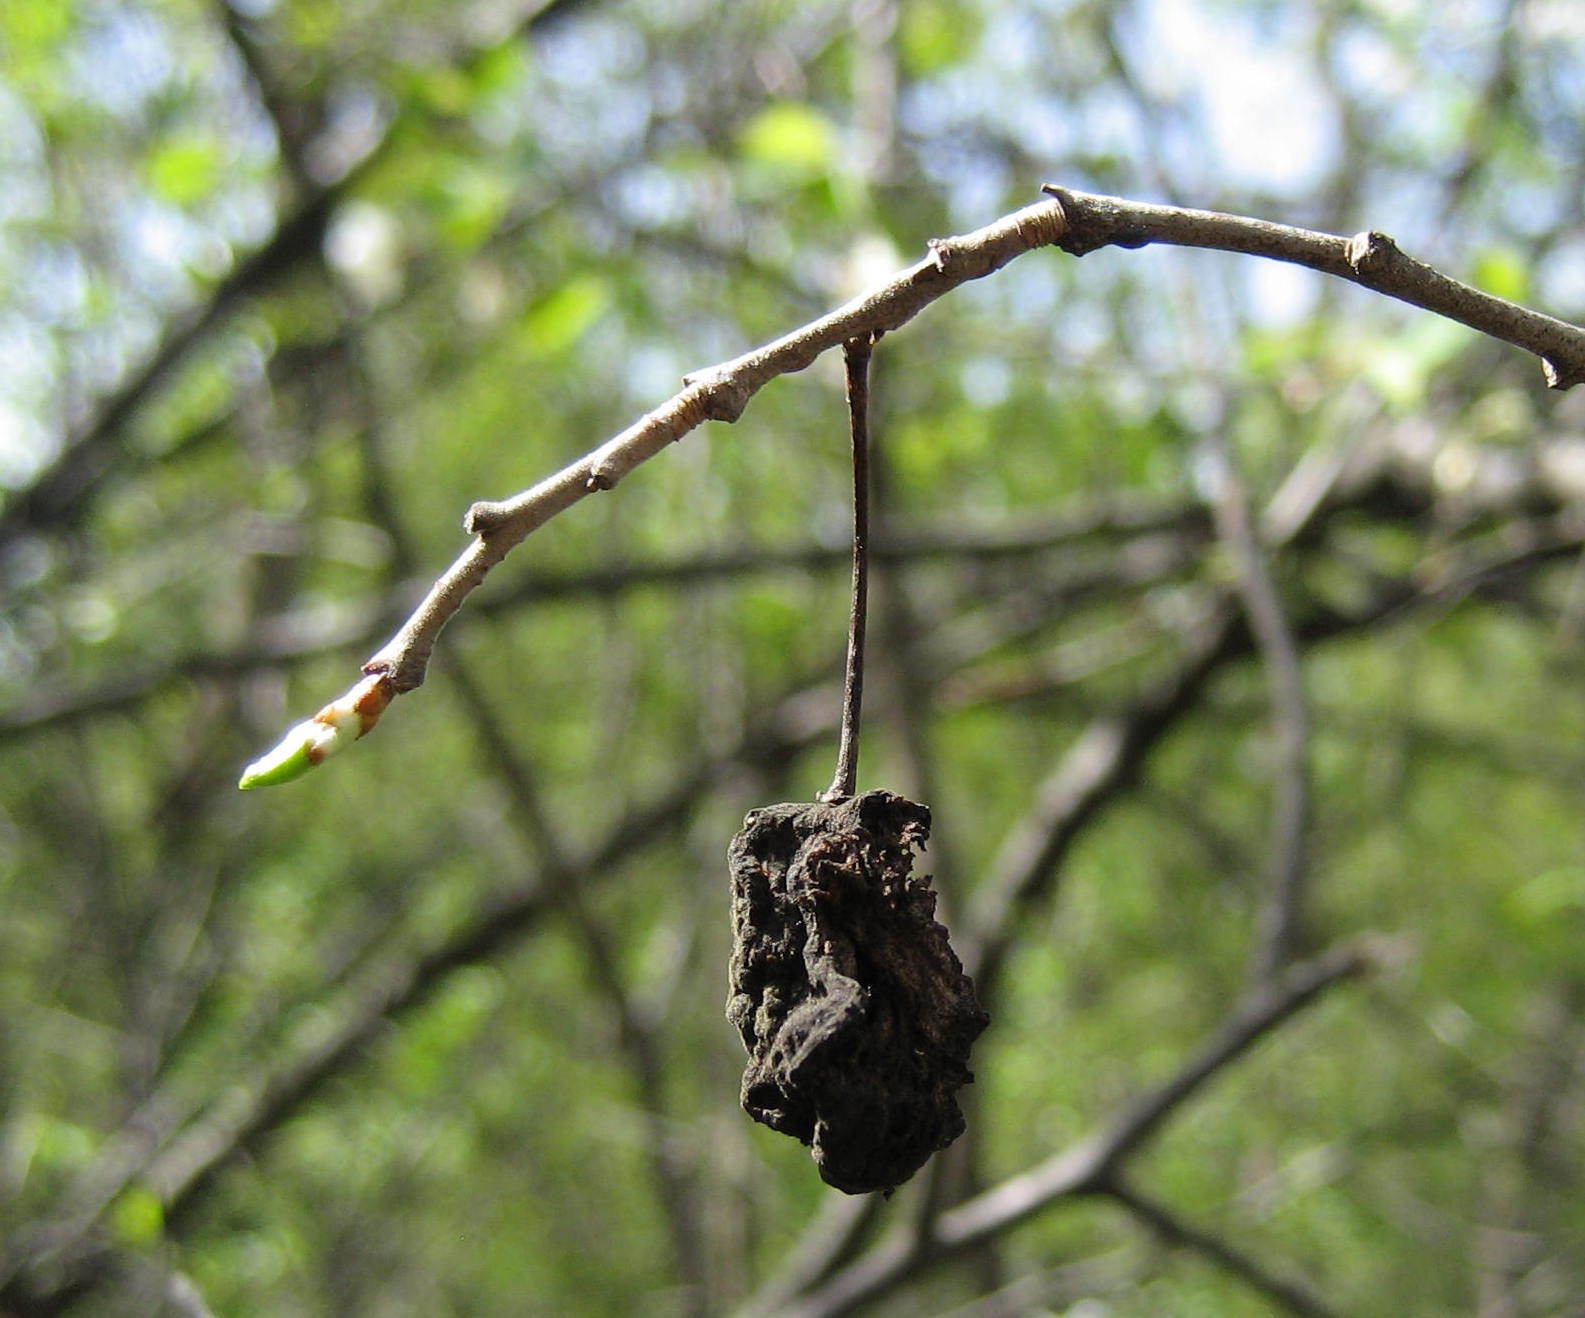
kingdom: Plantae
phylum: Tracheophyta
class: Magnoliopsida
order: Rosales
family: Rosaceae
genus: Prunus
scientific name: Prunus nigra
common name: Black plum
